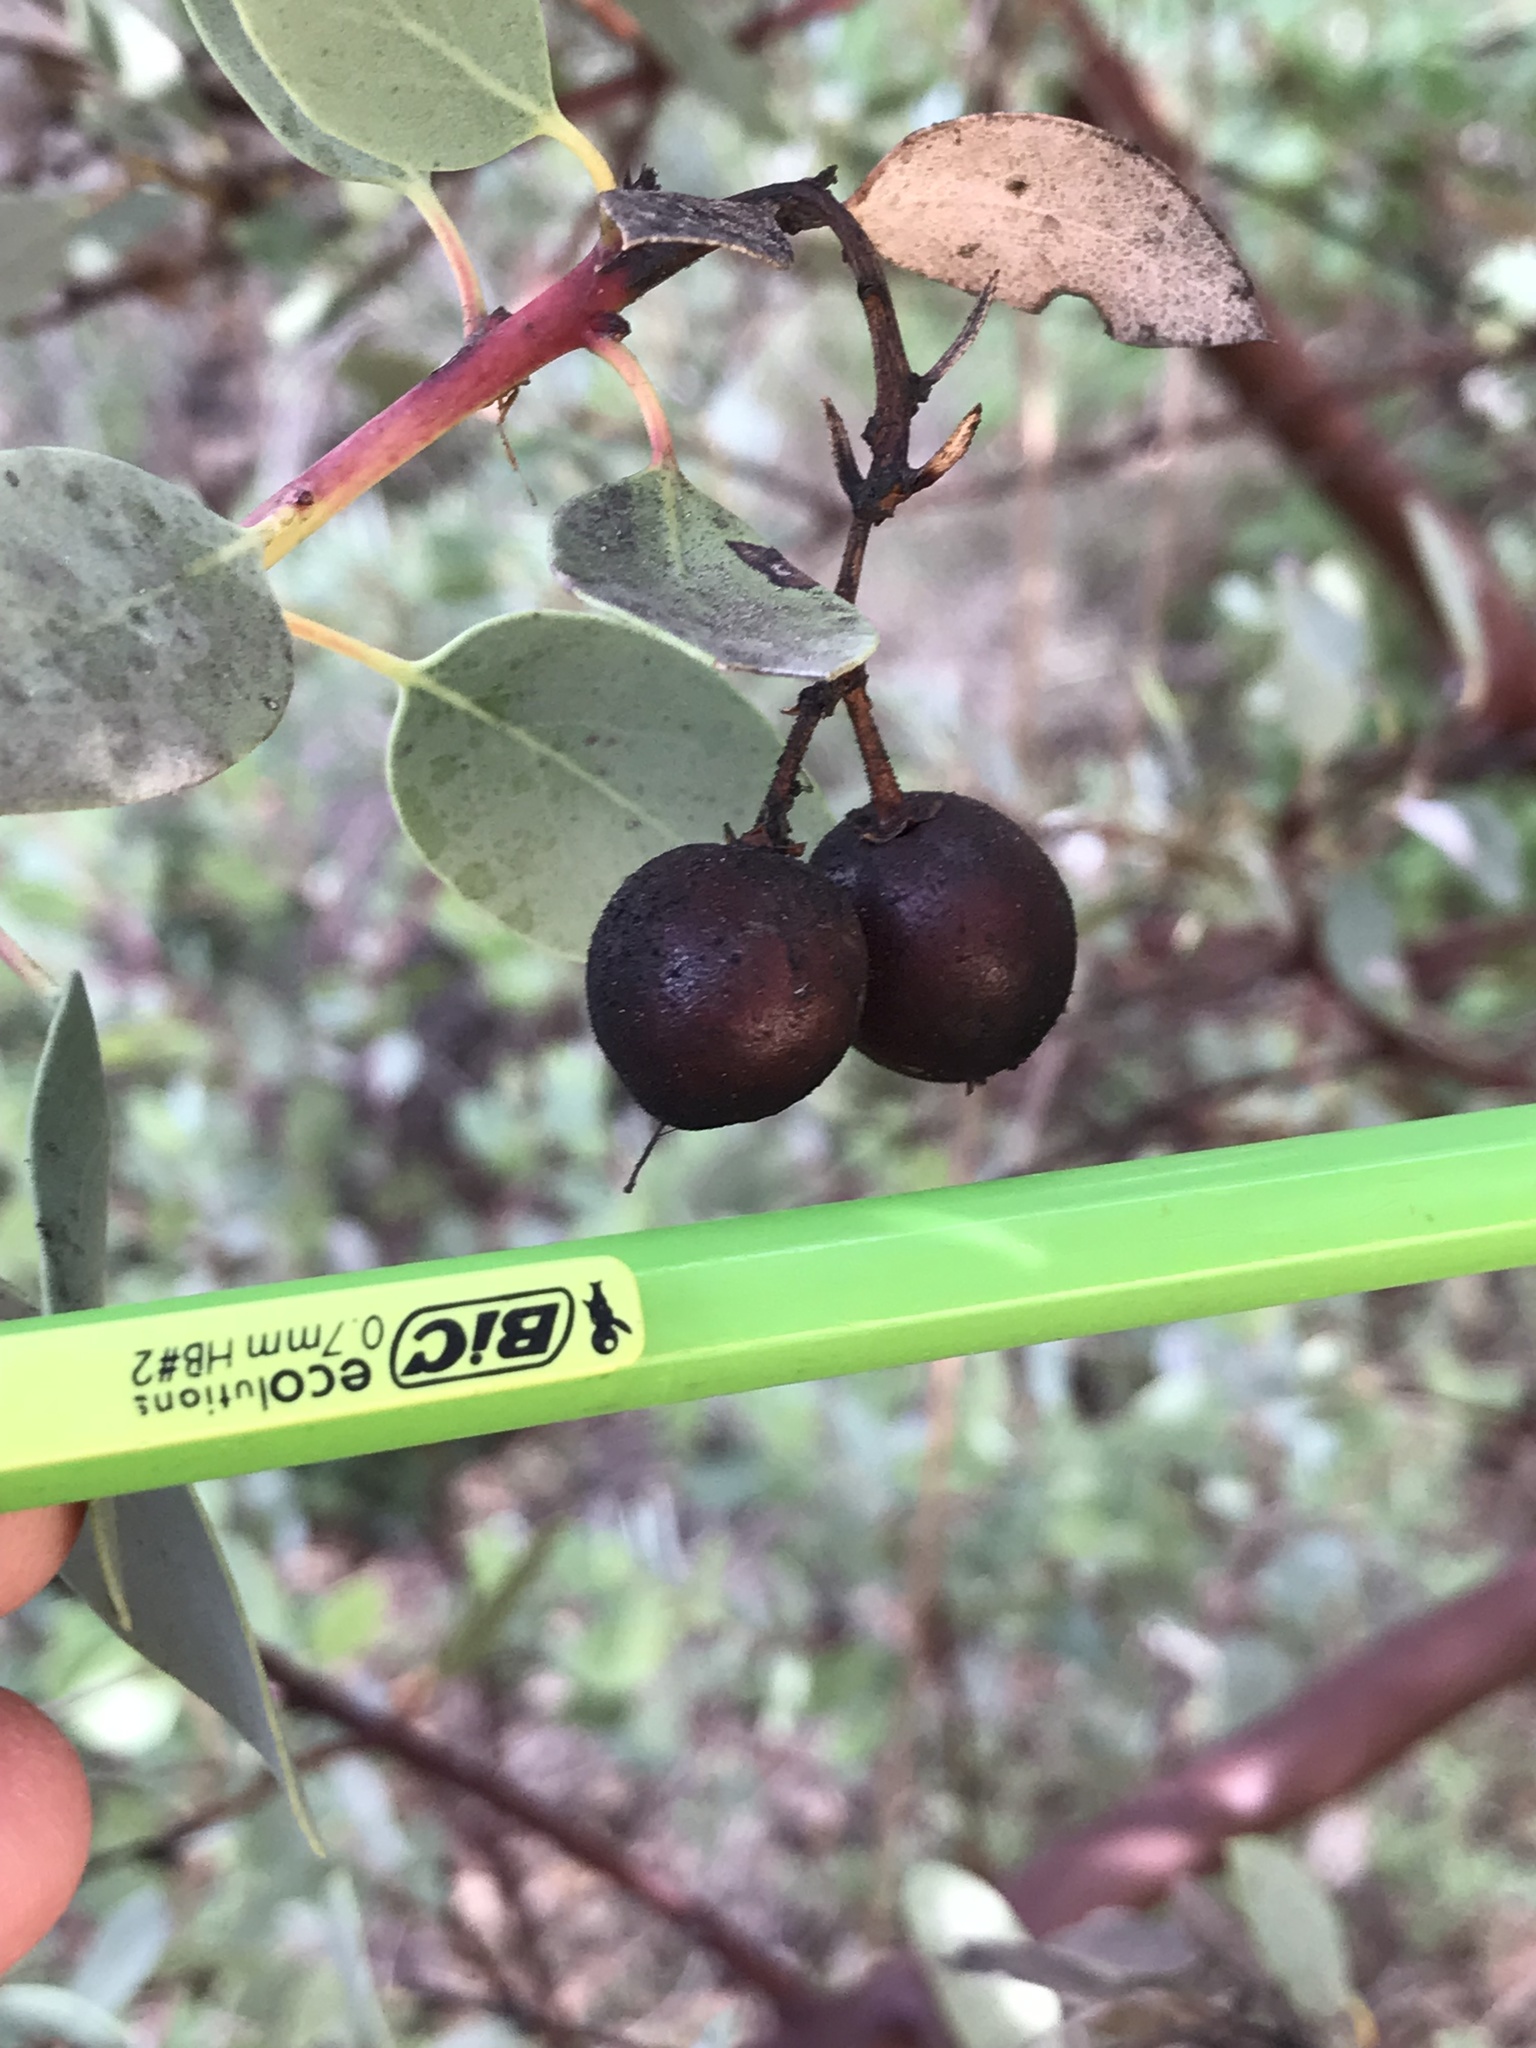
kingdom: Plantae
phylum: Tracheophyta
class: Magnoliopsida
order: Ericales
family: Ericaceae
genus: Arctostaphylos
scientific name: Arctostaphylos glauca
